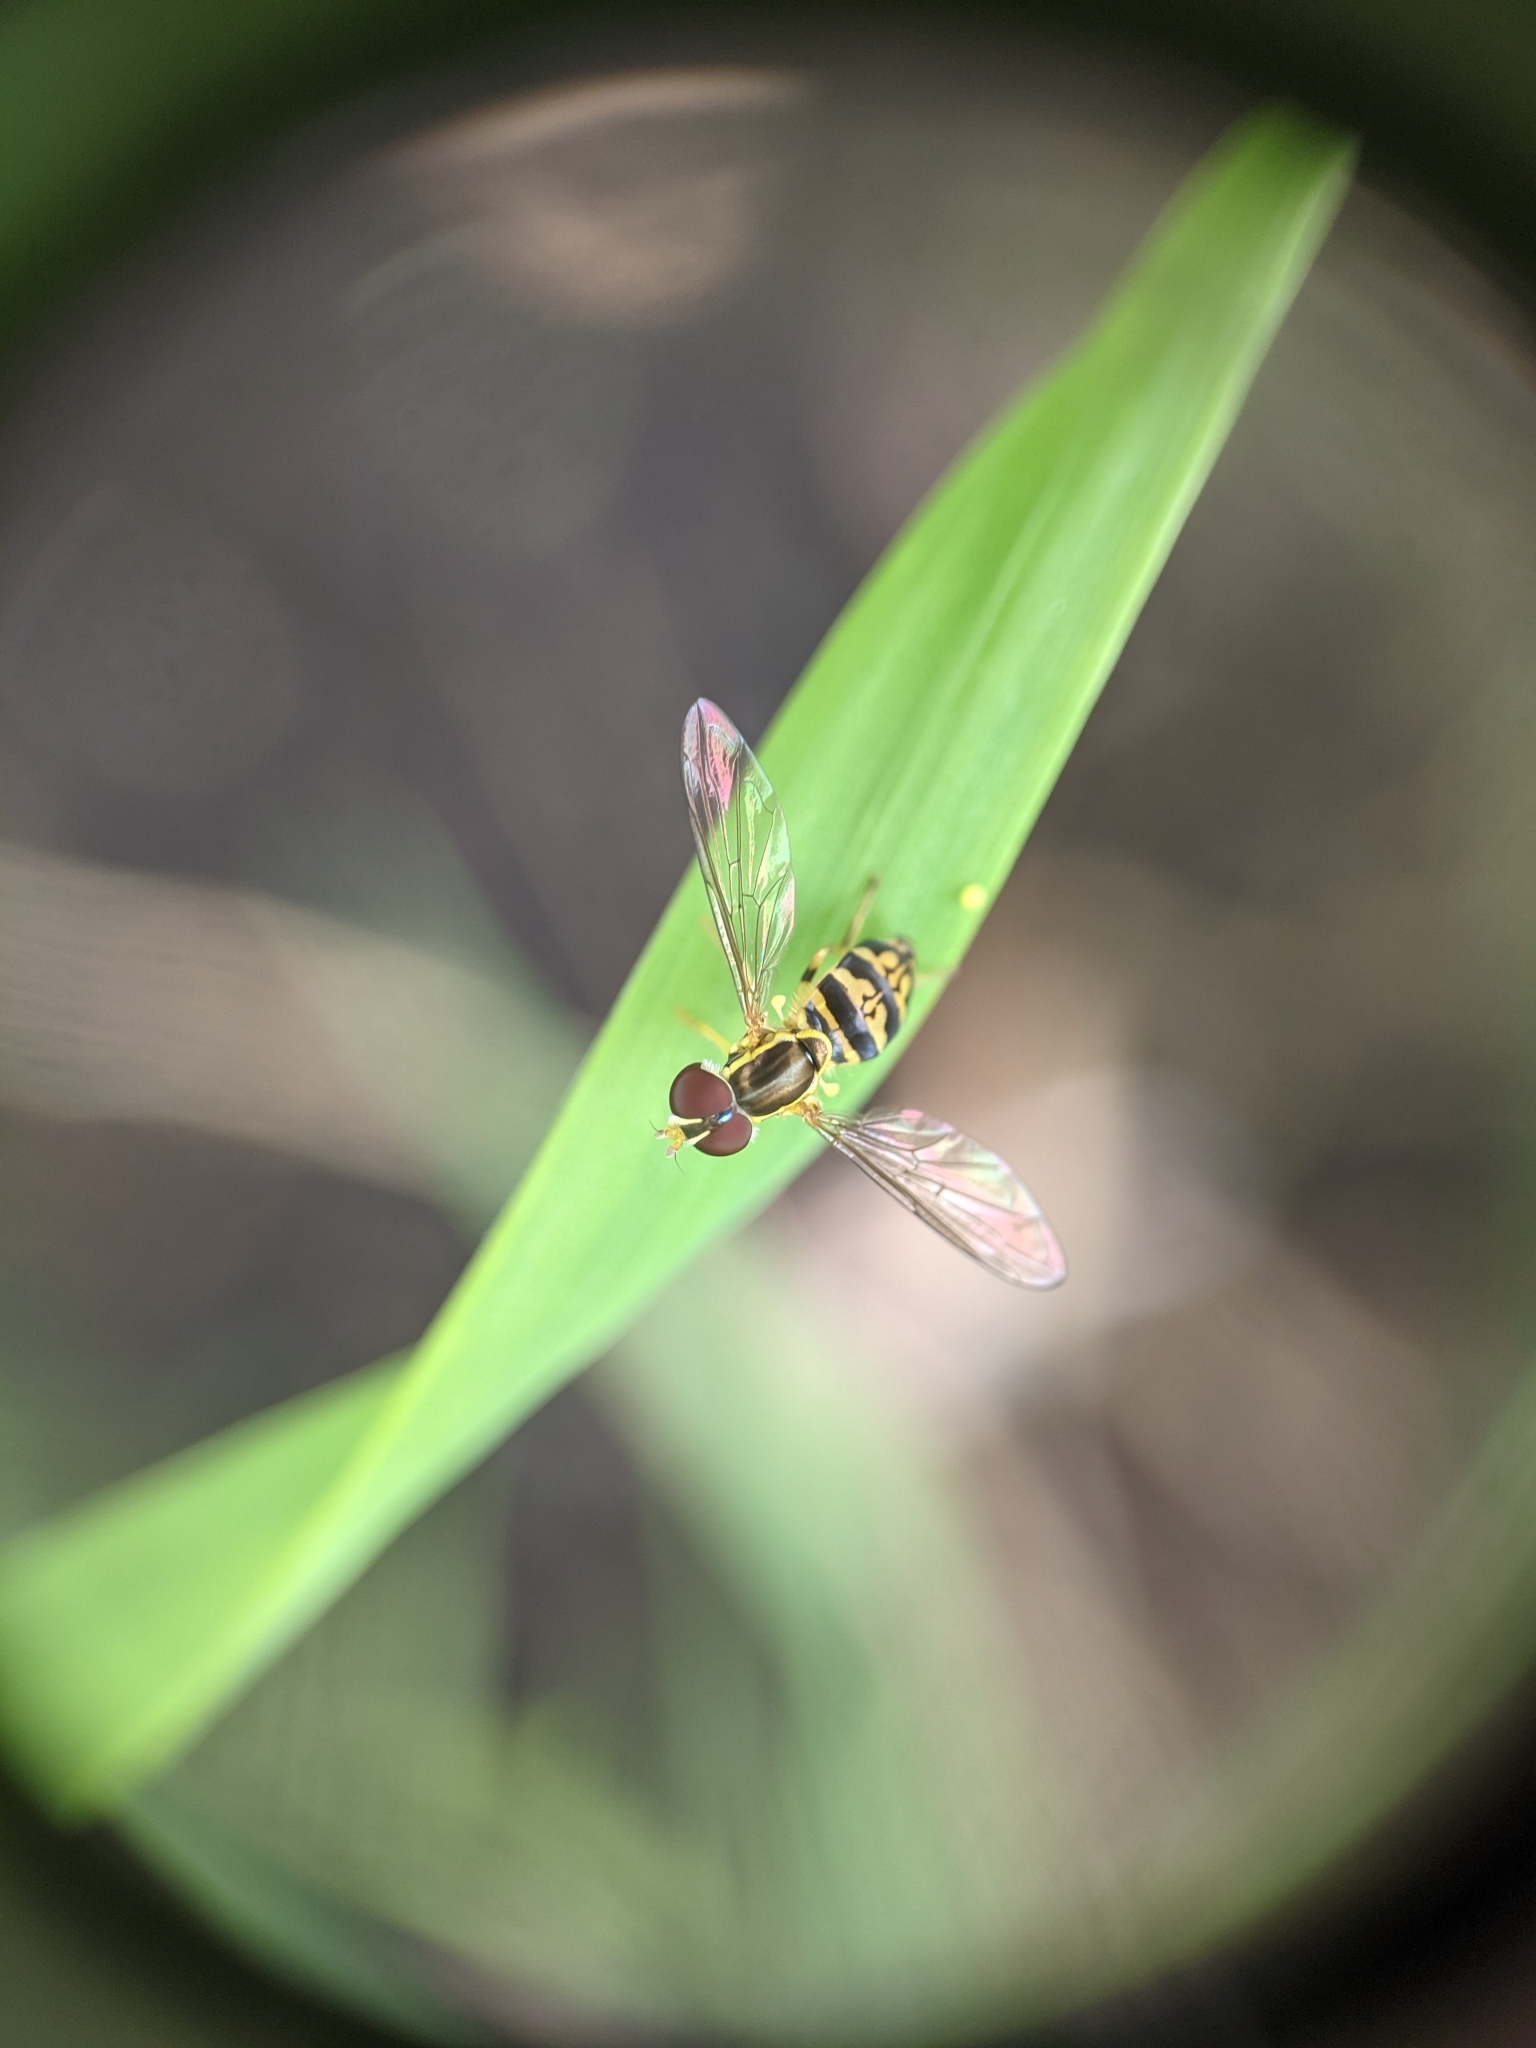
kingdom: Animalia
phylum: Arthropoda
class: Insecta
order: Diptera
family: Syrphidae
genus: Toxomerus
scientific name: Toxomerus geminatus
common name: Eastern calligrapher
